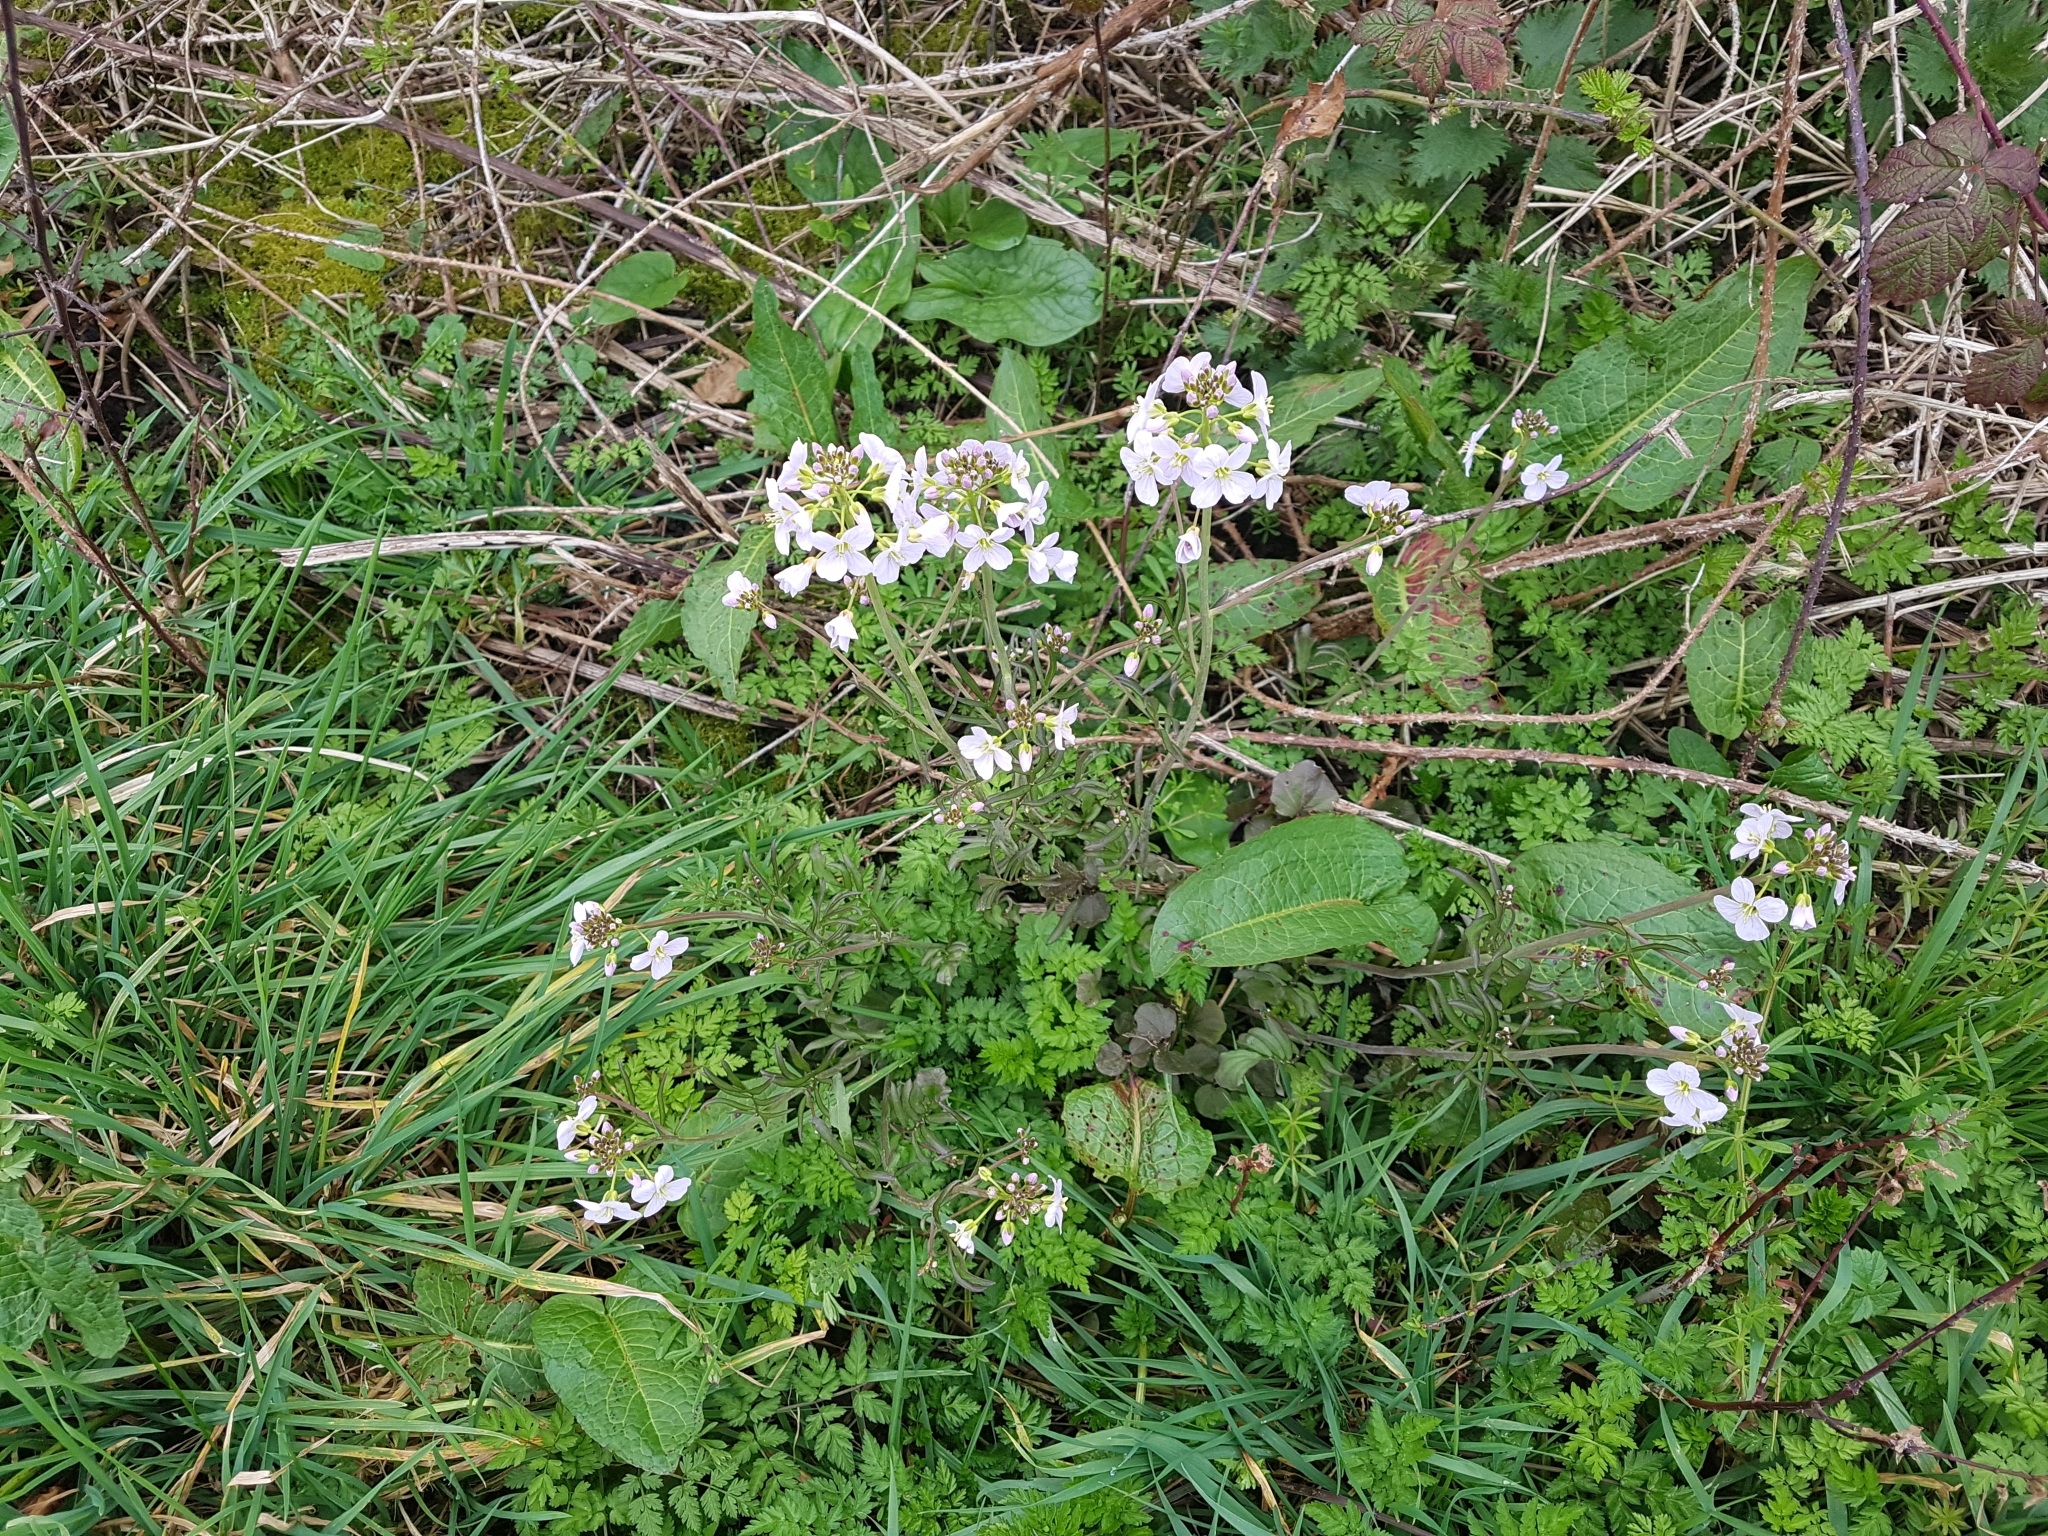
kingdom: Plantae
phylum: Tracheophyta
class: Magnoliopsida
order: Brassicales
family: Brassicaceae
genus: Cardamine
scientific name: Cardamine pratensis
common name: Cuckoo flower
